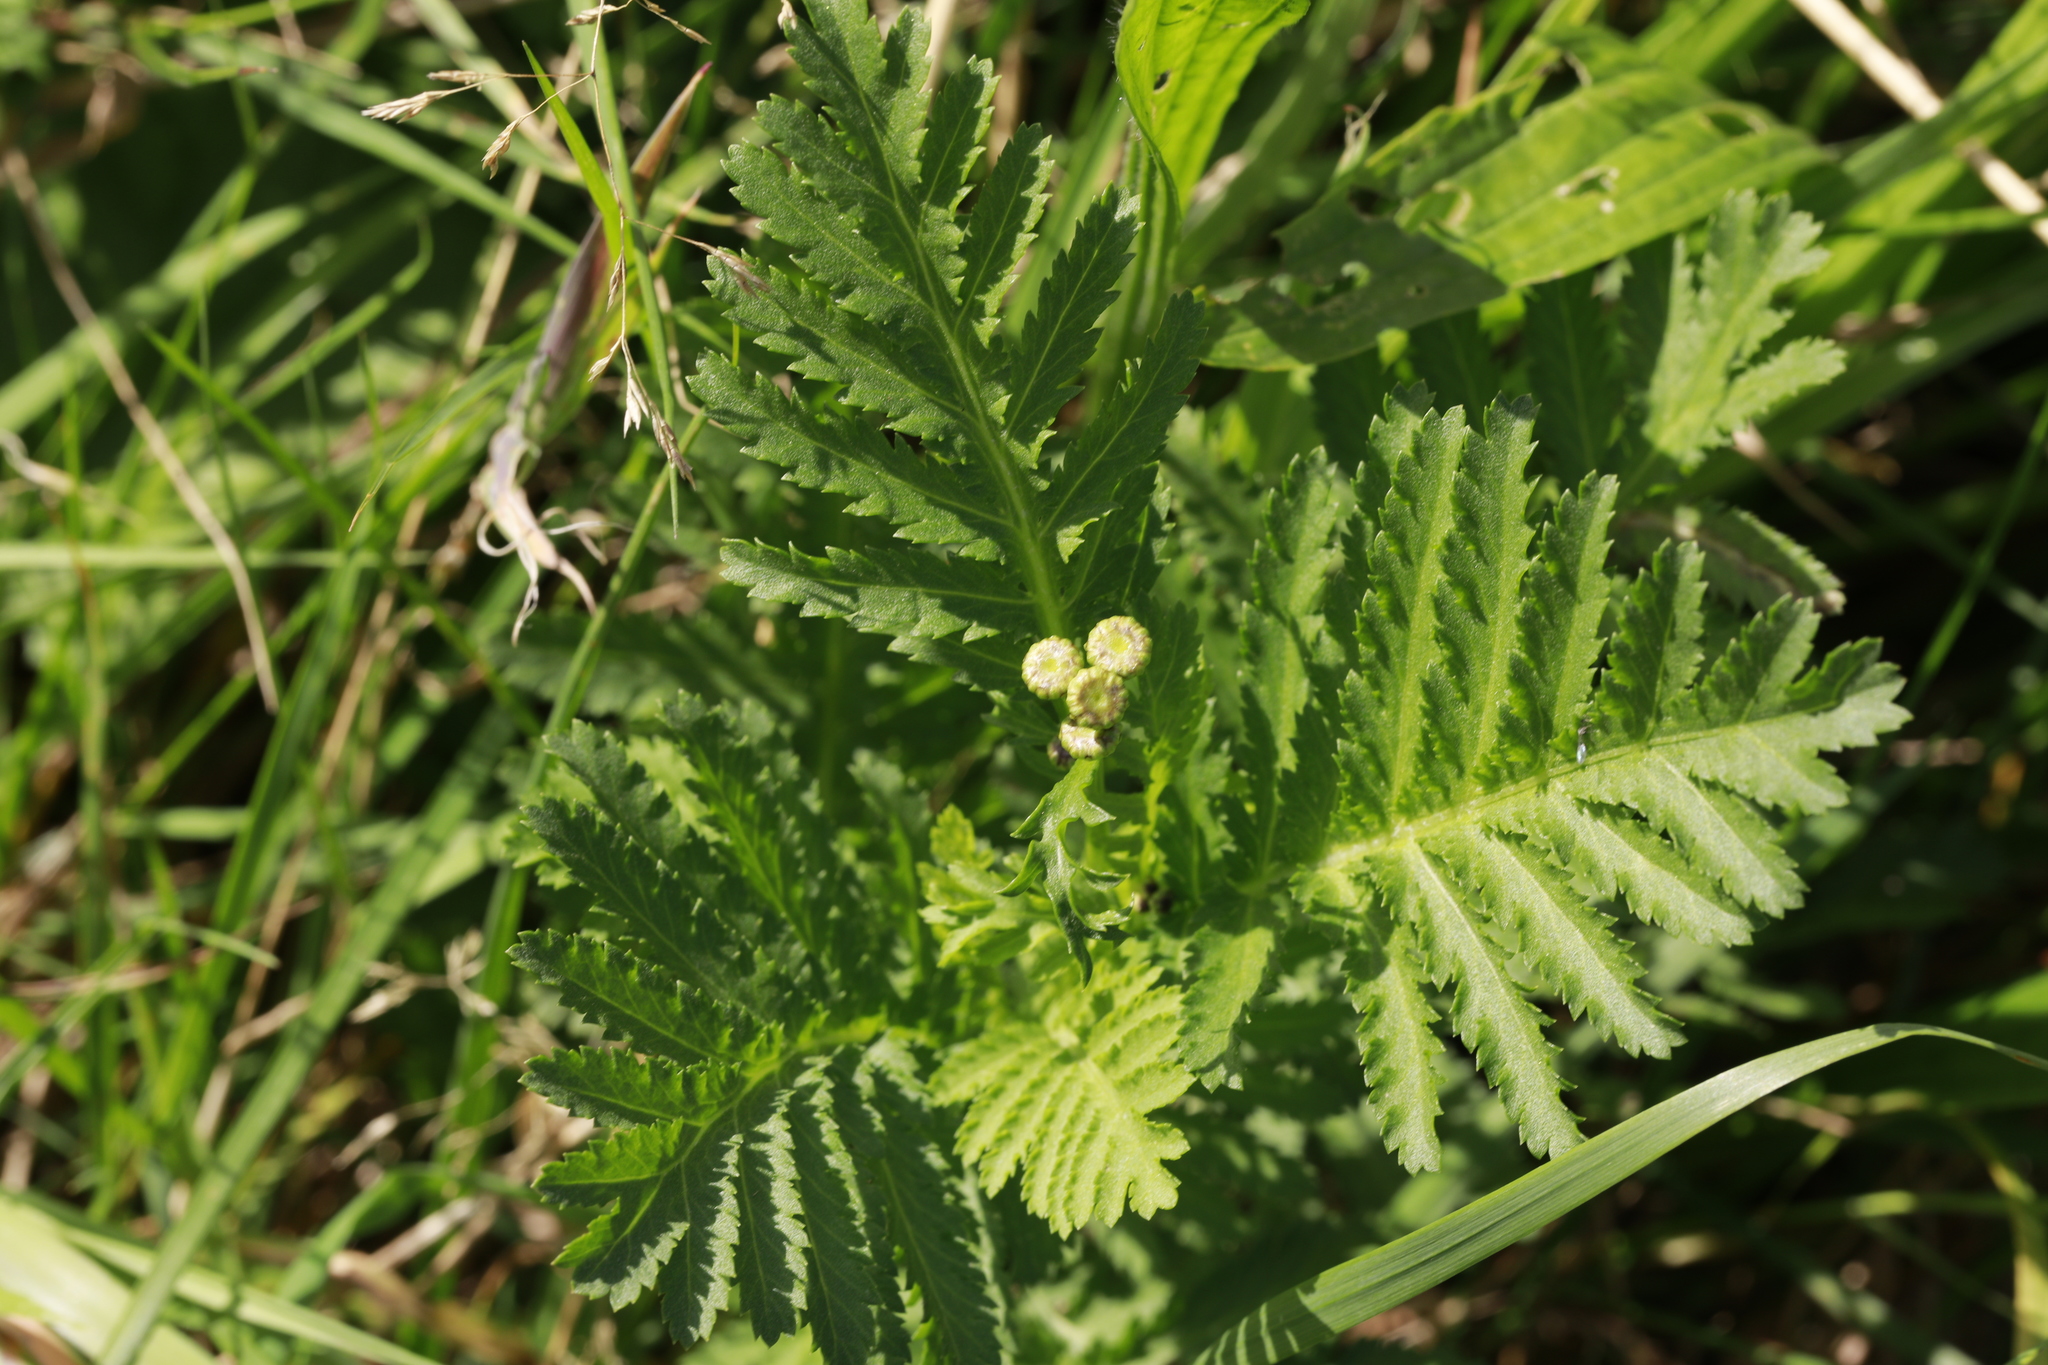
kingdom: Plantae
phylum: Tracheophyta
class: Magnoliopsida
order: Asterales
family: Asteraceae
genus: Tanacetum
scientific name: Tanacetum vulgare
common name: Common tansy
